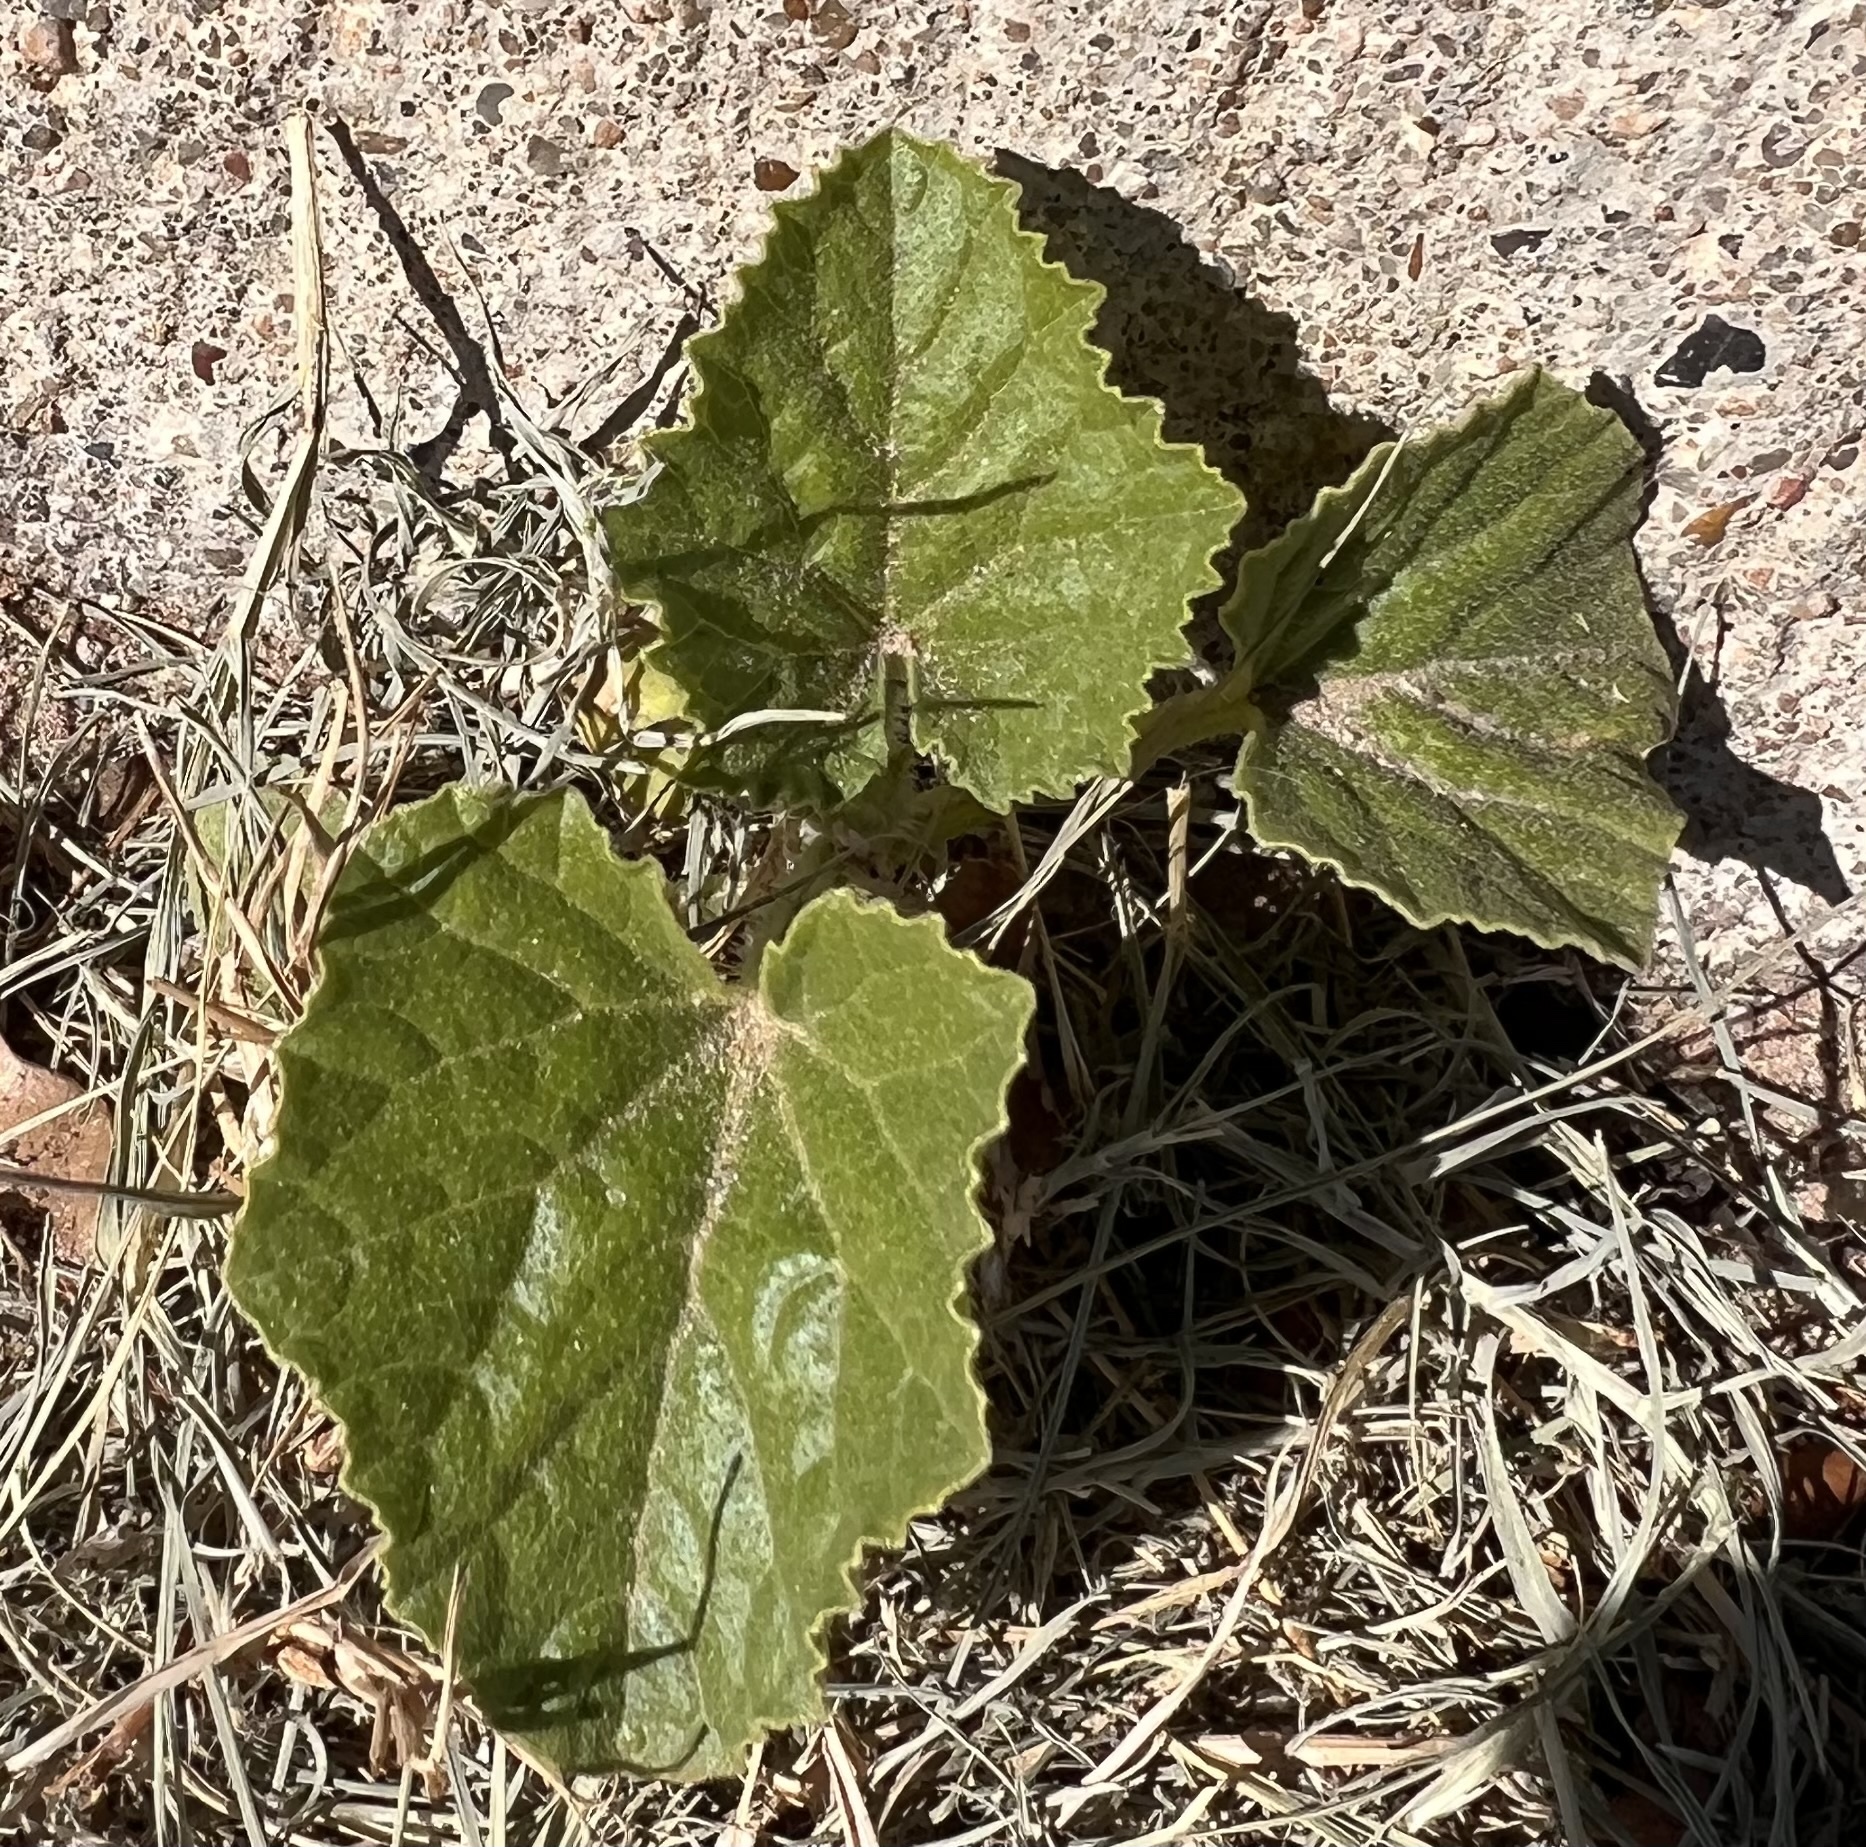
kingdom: Plantae
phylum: Tracheophyta
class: Magnoliopsida
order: Cucurbitales
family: Cucurbitaceae
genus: Cucumis
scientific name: Cucumis melo
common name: Melon
